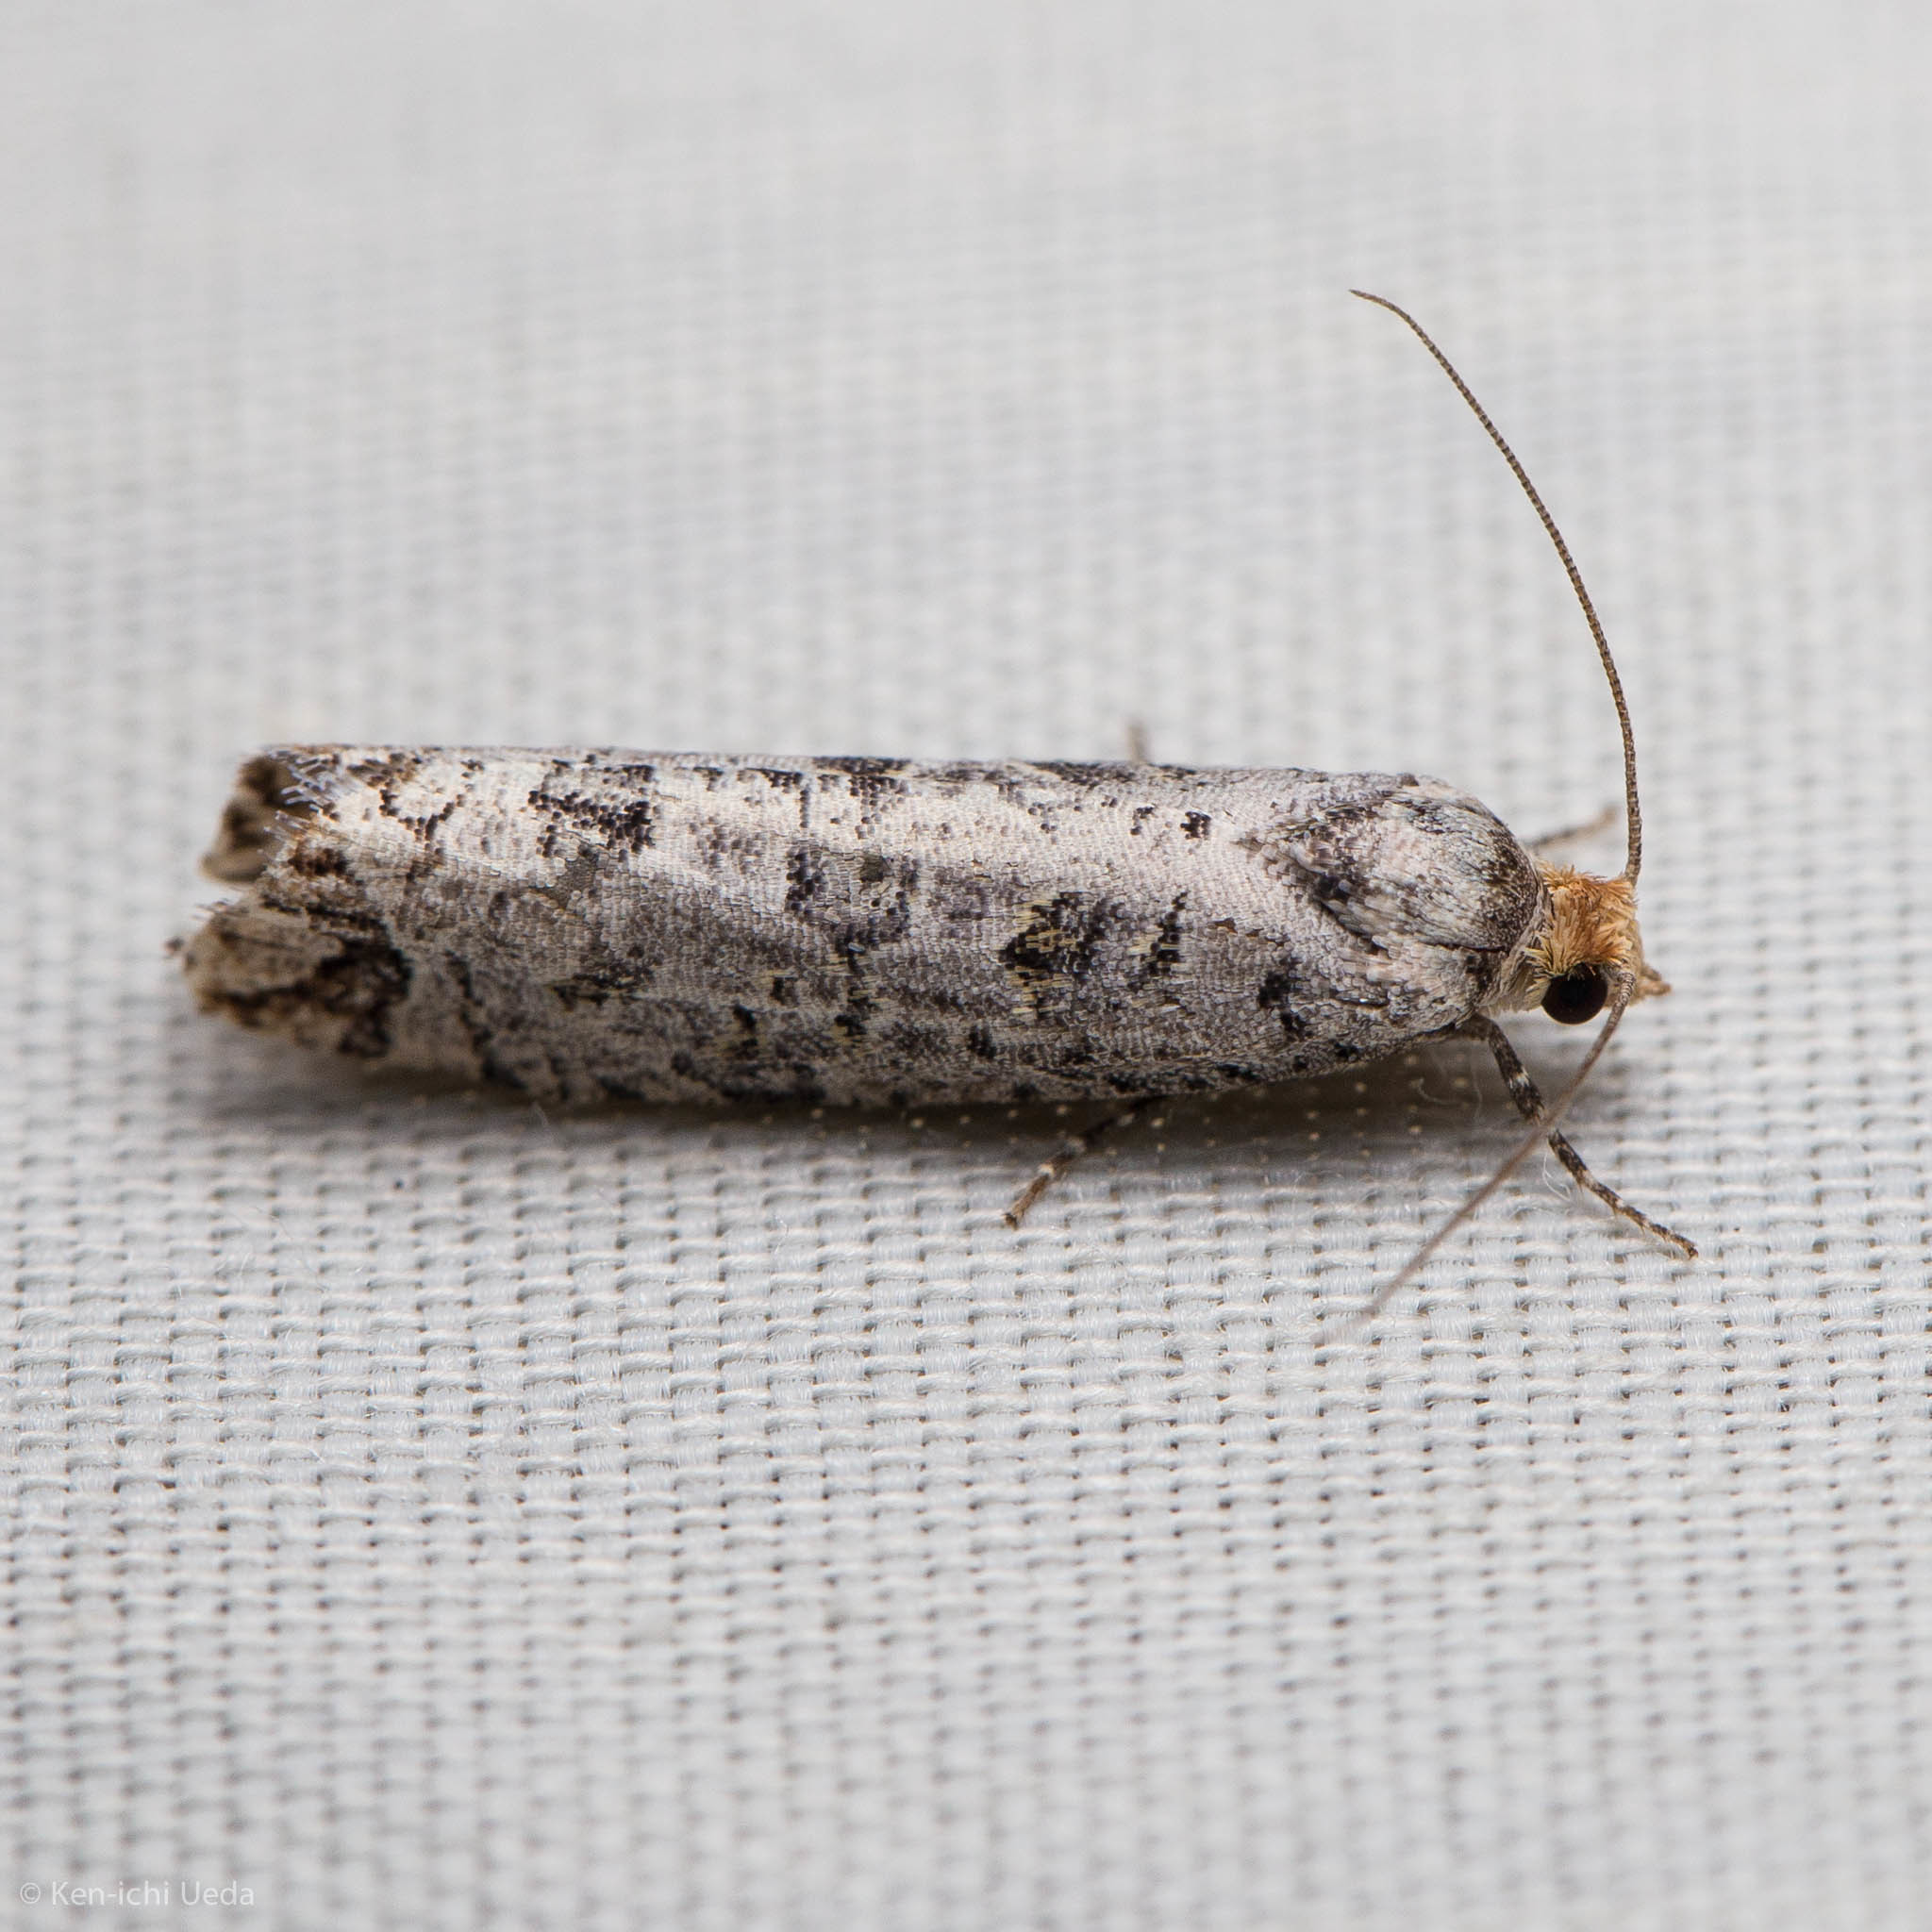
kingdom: Animalia
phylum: Arthropoda
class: Insecta
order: Lepidoptera
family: Tortricidae
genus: Retinia
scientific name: Retinia picicolana
